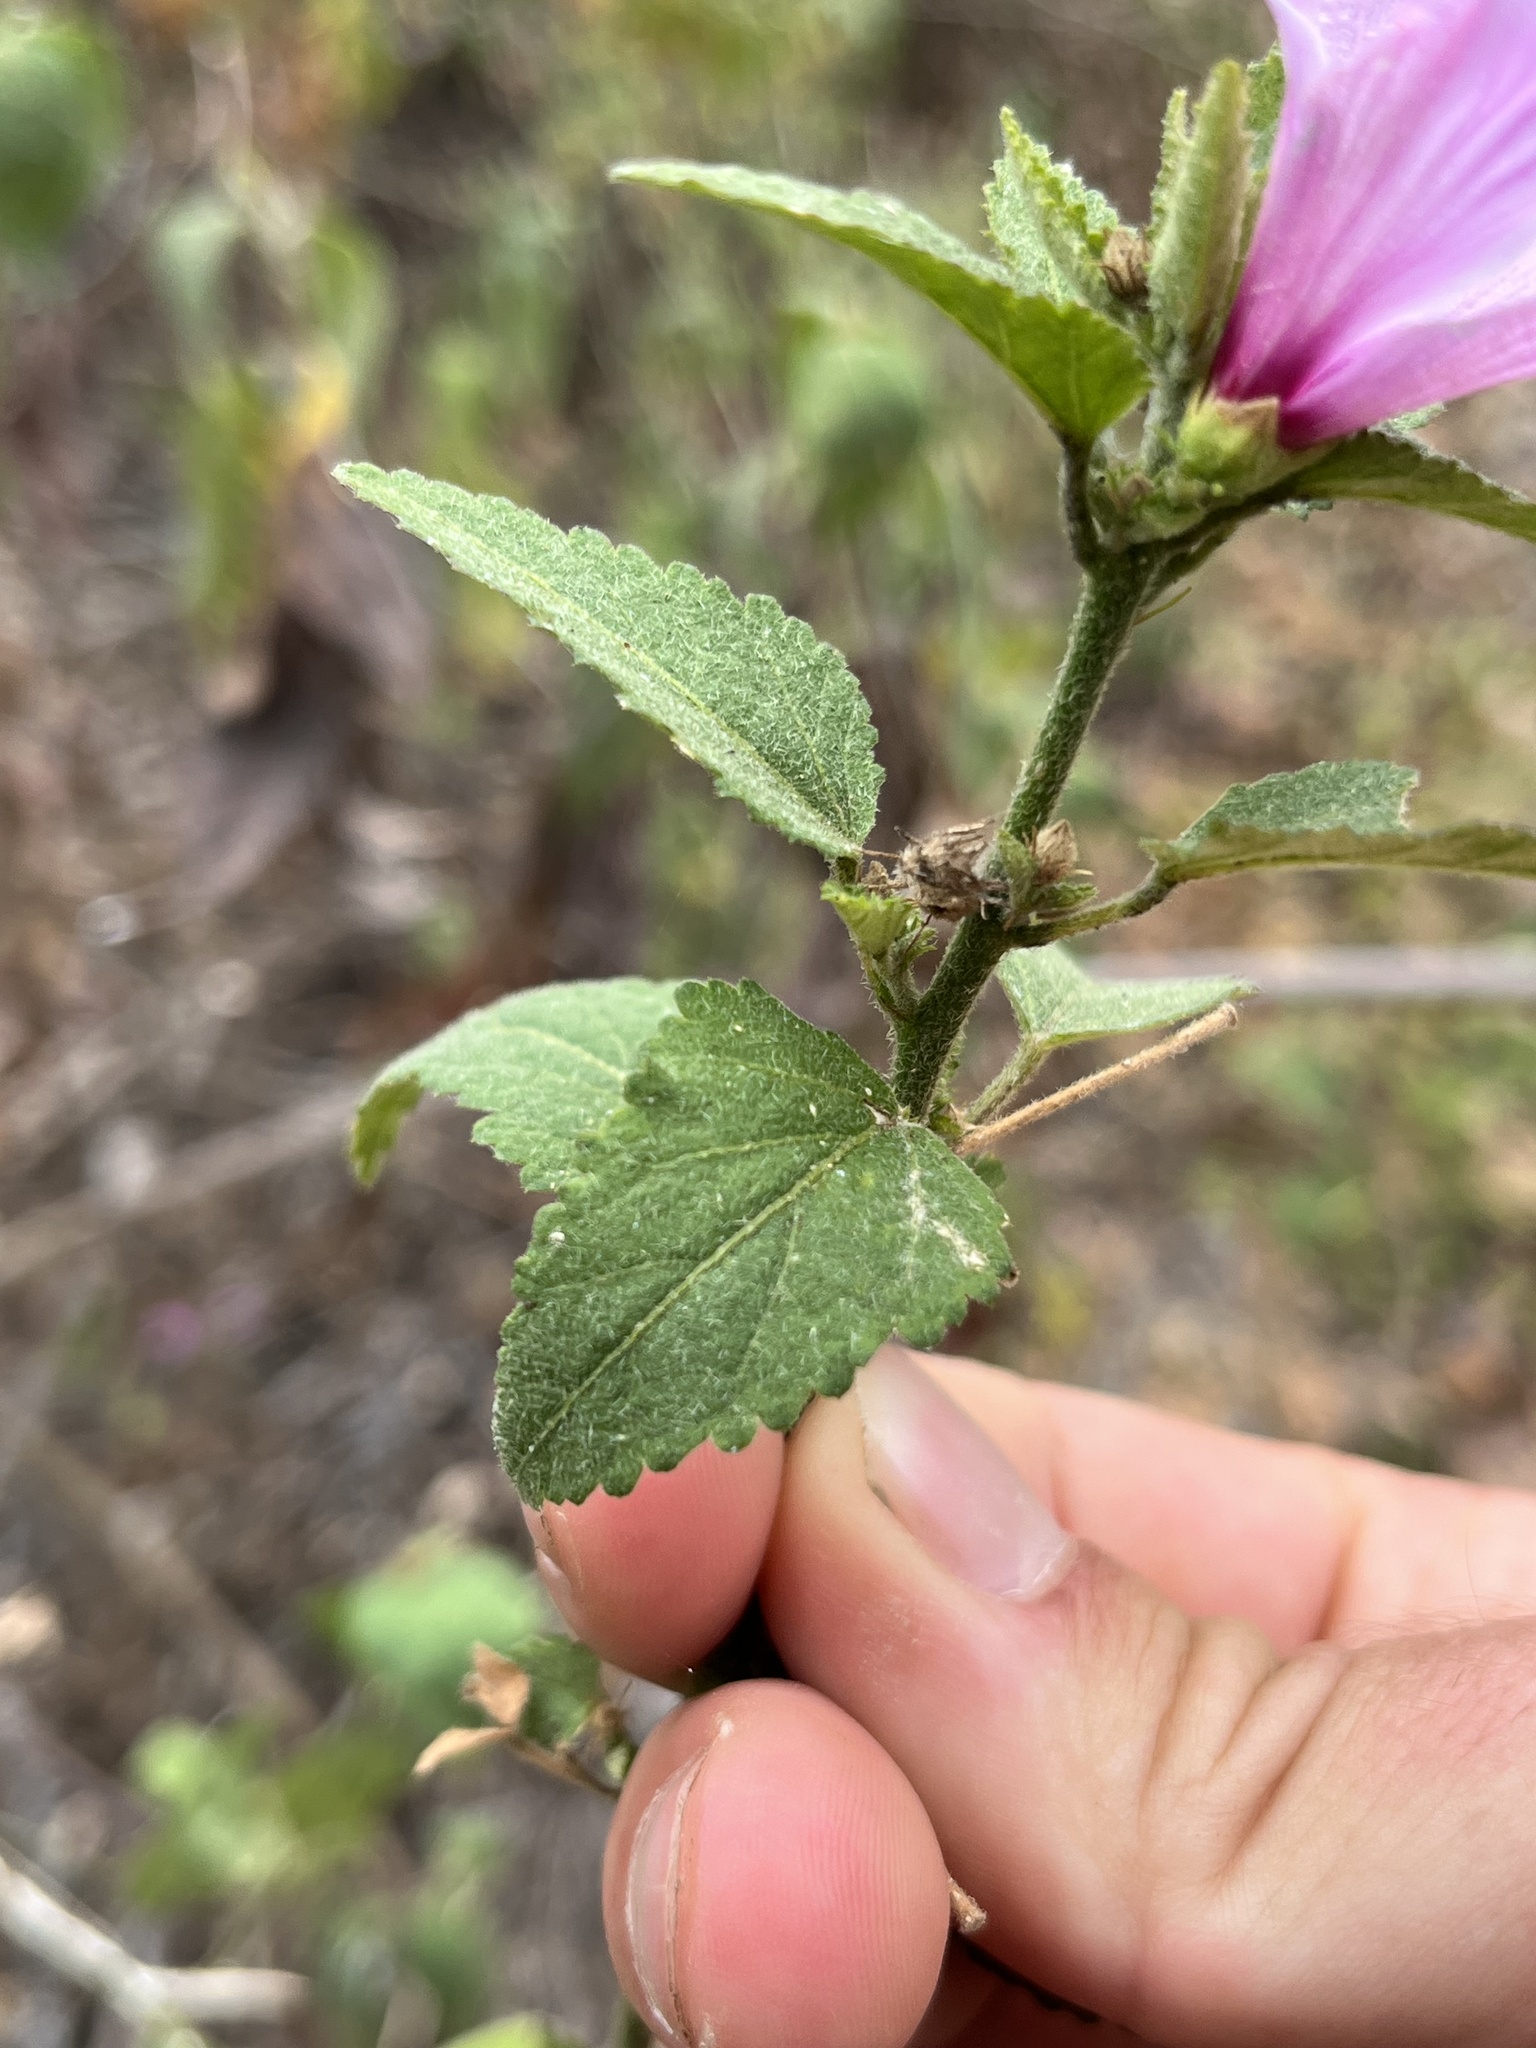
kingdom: Plantae
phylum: Tracheophyta
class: Magnoliopsida
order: Malvales
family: Malvaceae
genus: Hibiscus
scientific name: Hibiscus escobariae
